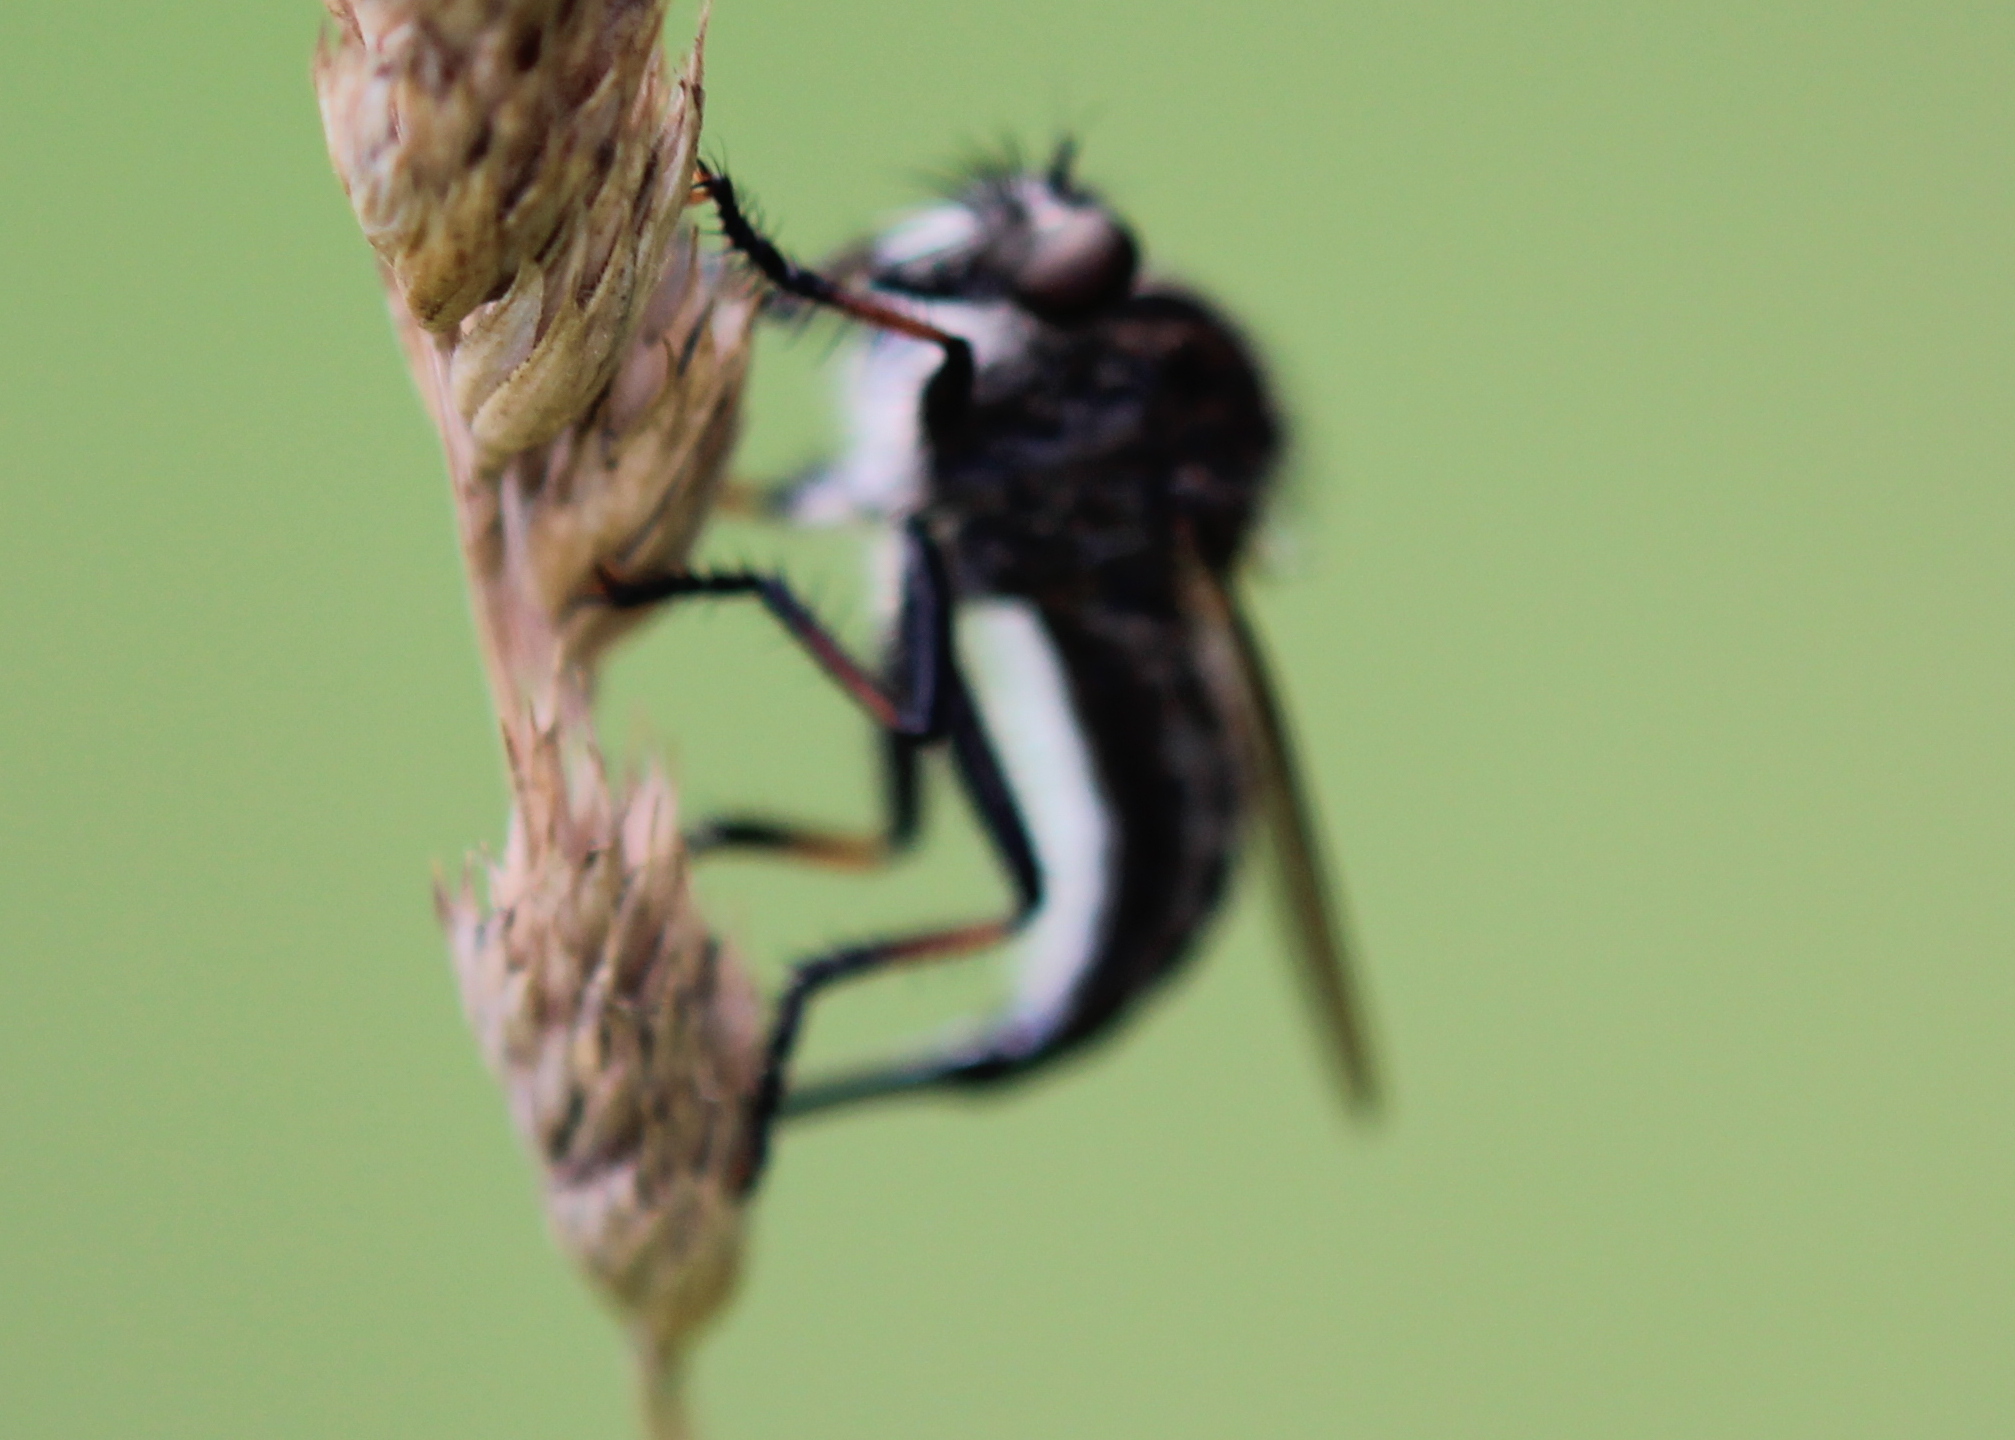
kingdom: Animalia
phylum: Arthropoda
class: Insecta
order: Diptera
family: Asilidae
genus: Efferia
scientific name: Efferia aestuans
